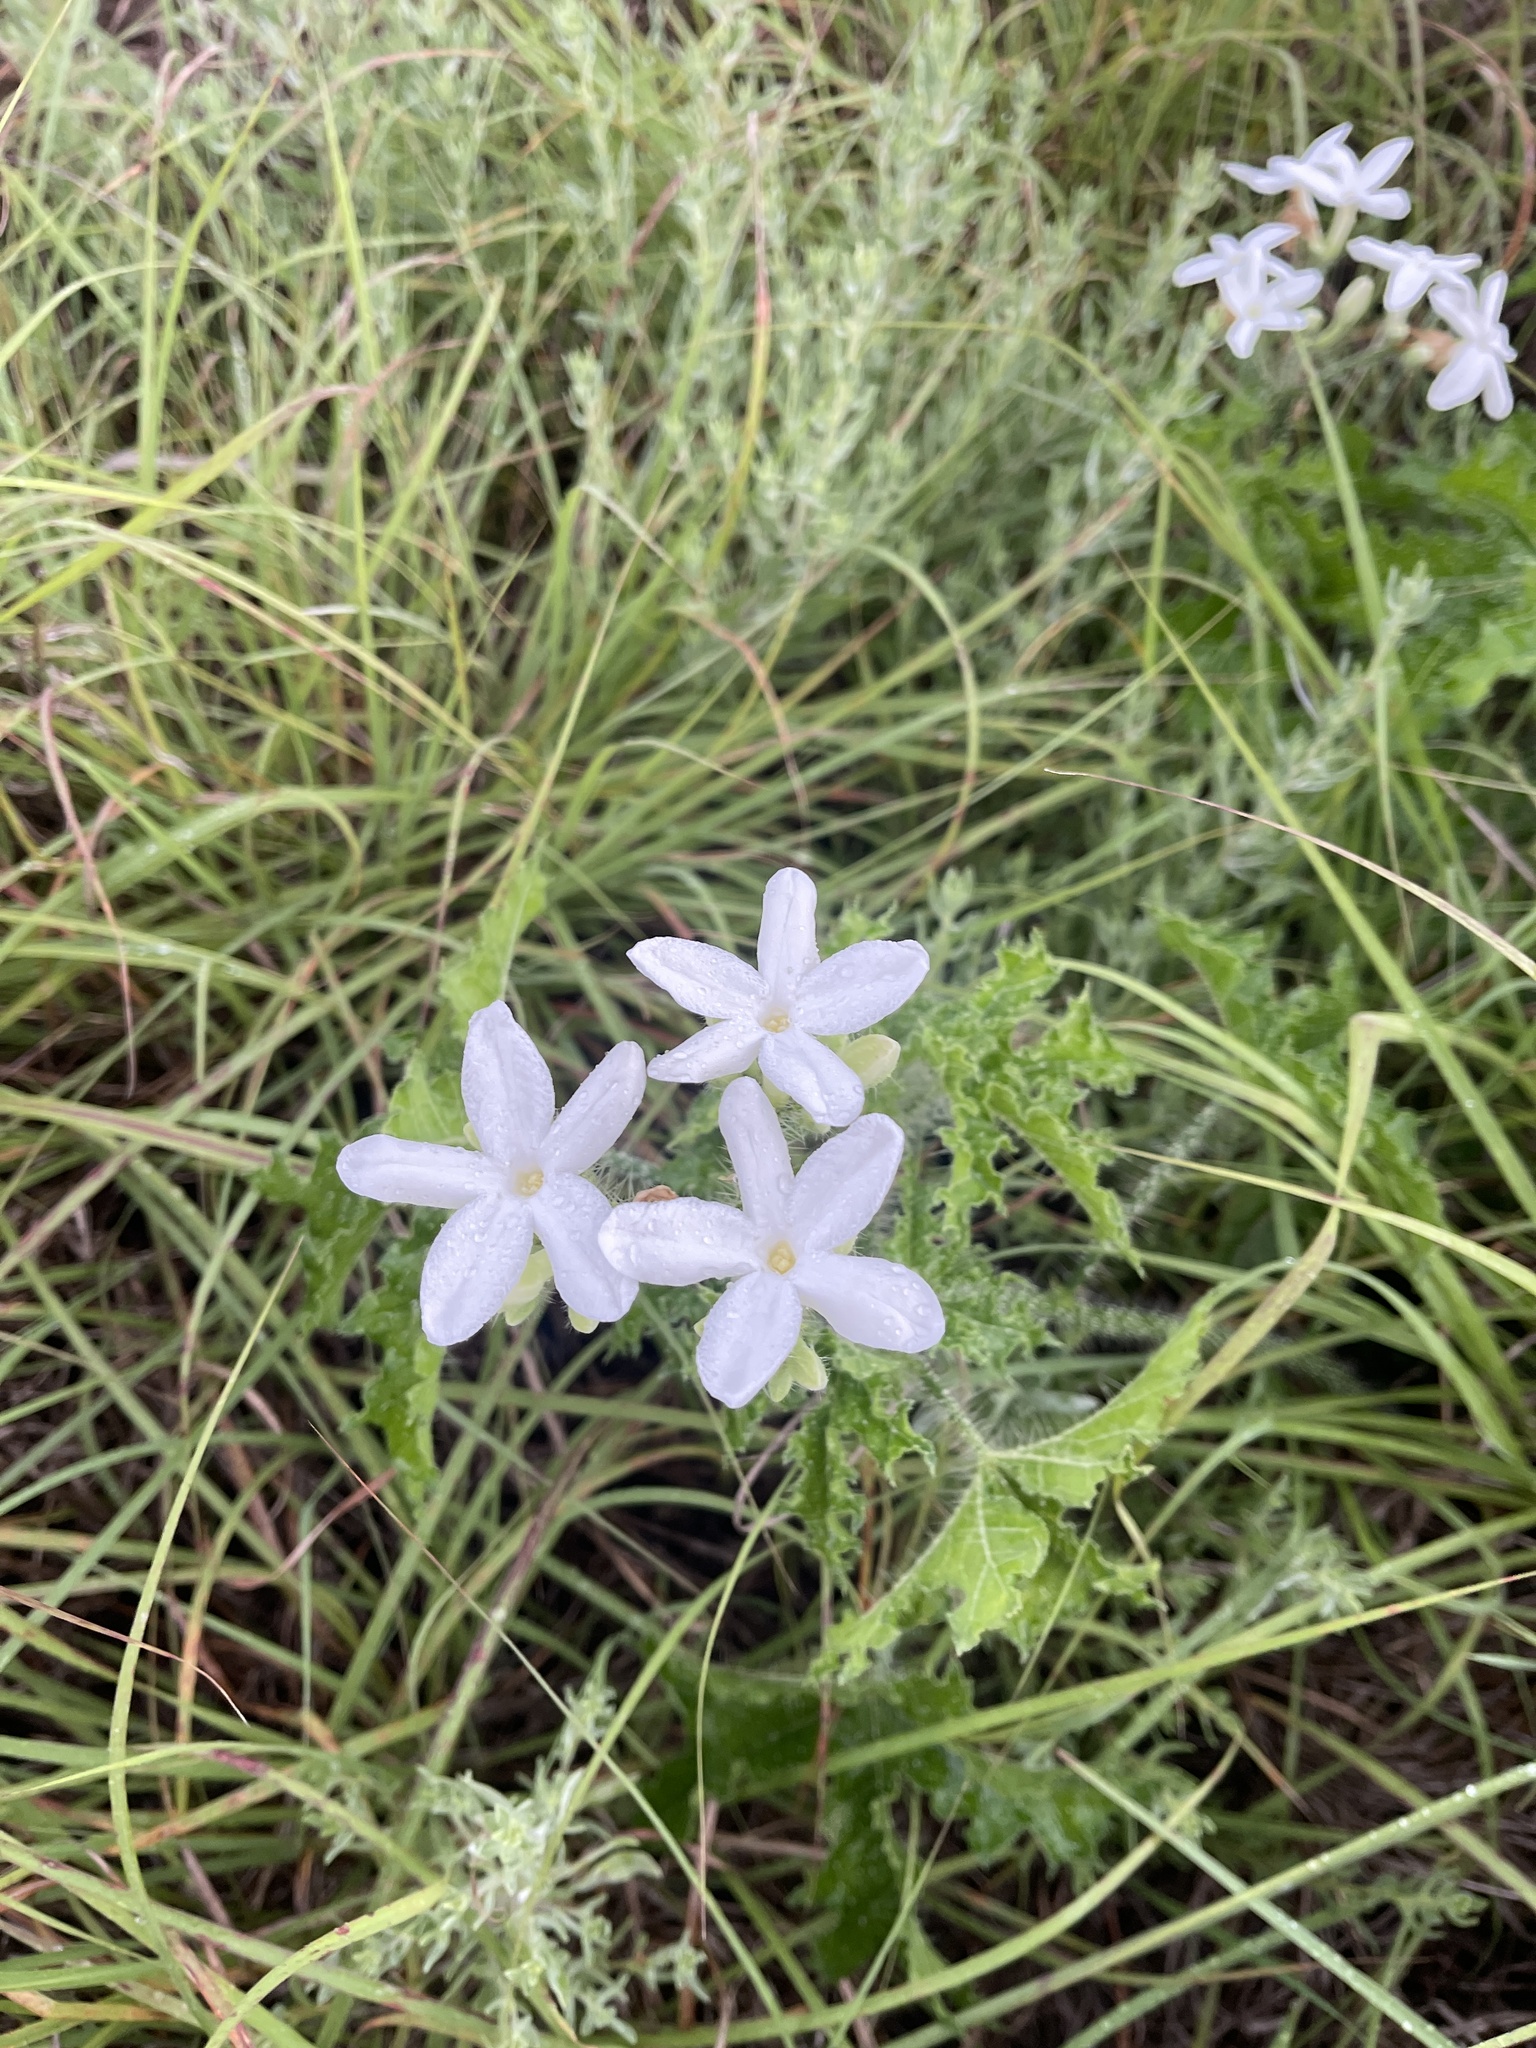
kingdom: Plantae
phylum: Tracheophyta
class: Magnoliopsida
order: Malpighiales
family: Euphorbiaceae
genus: Cnidoscolus
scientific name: Cnidoscolus texanus
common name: Texas bull-nettle
